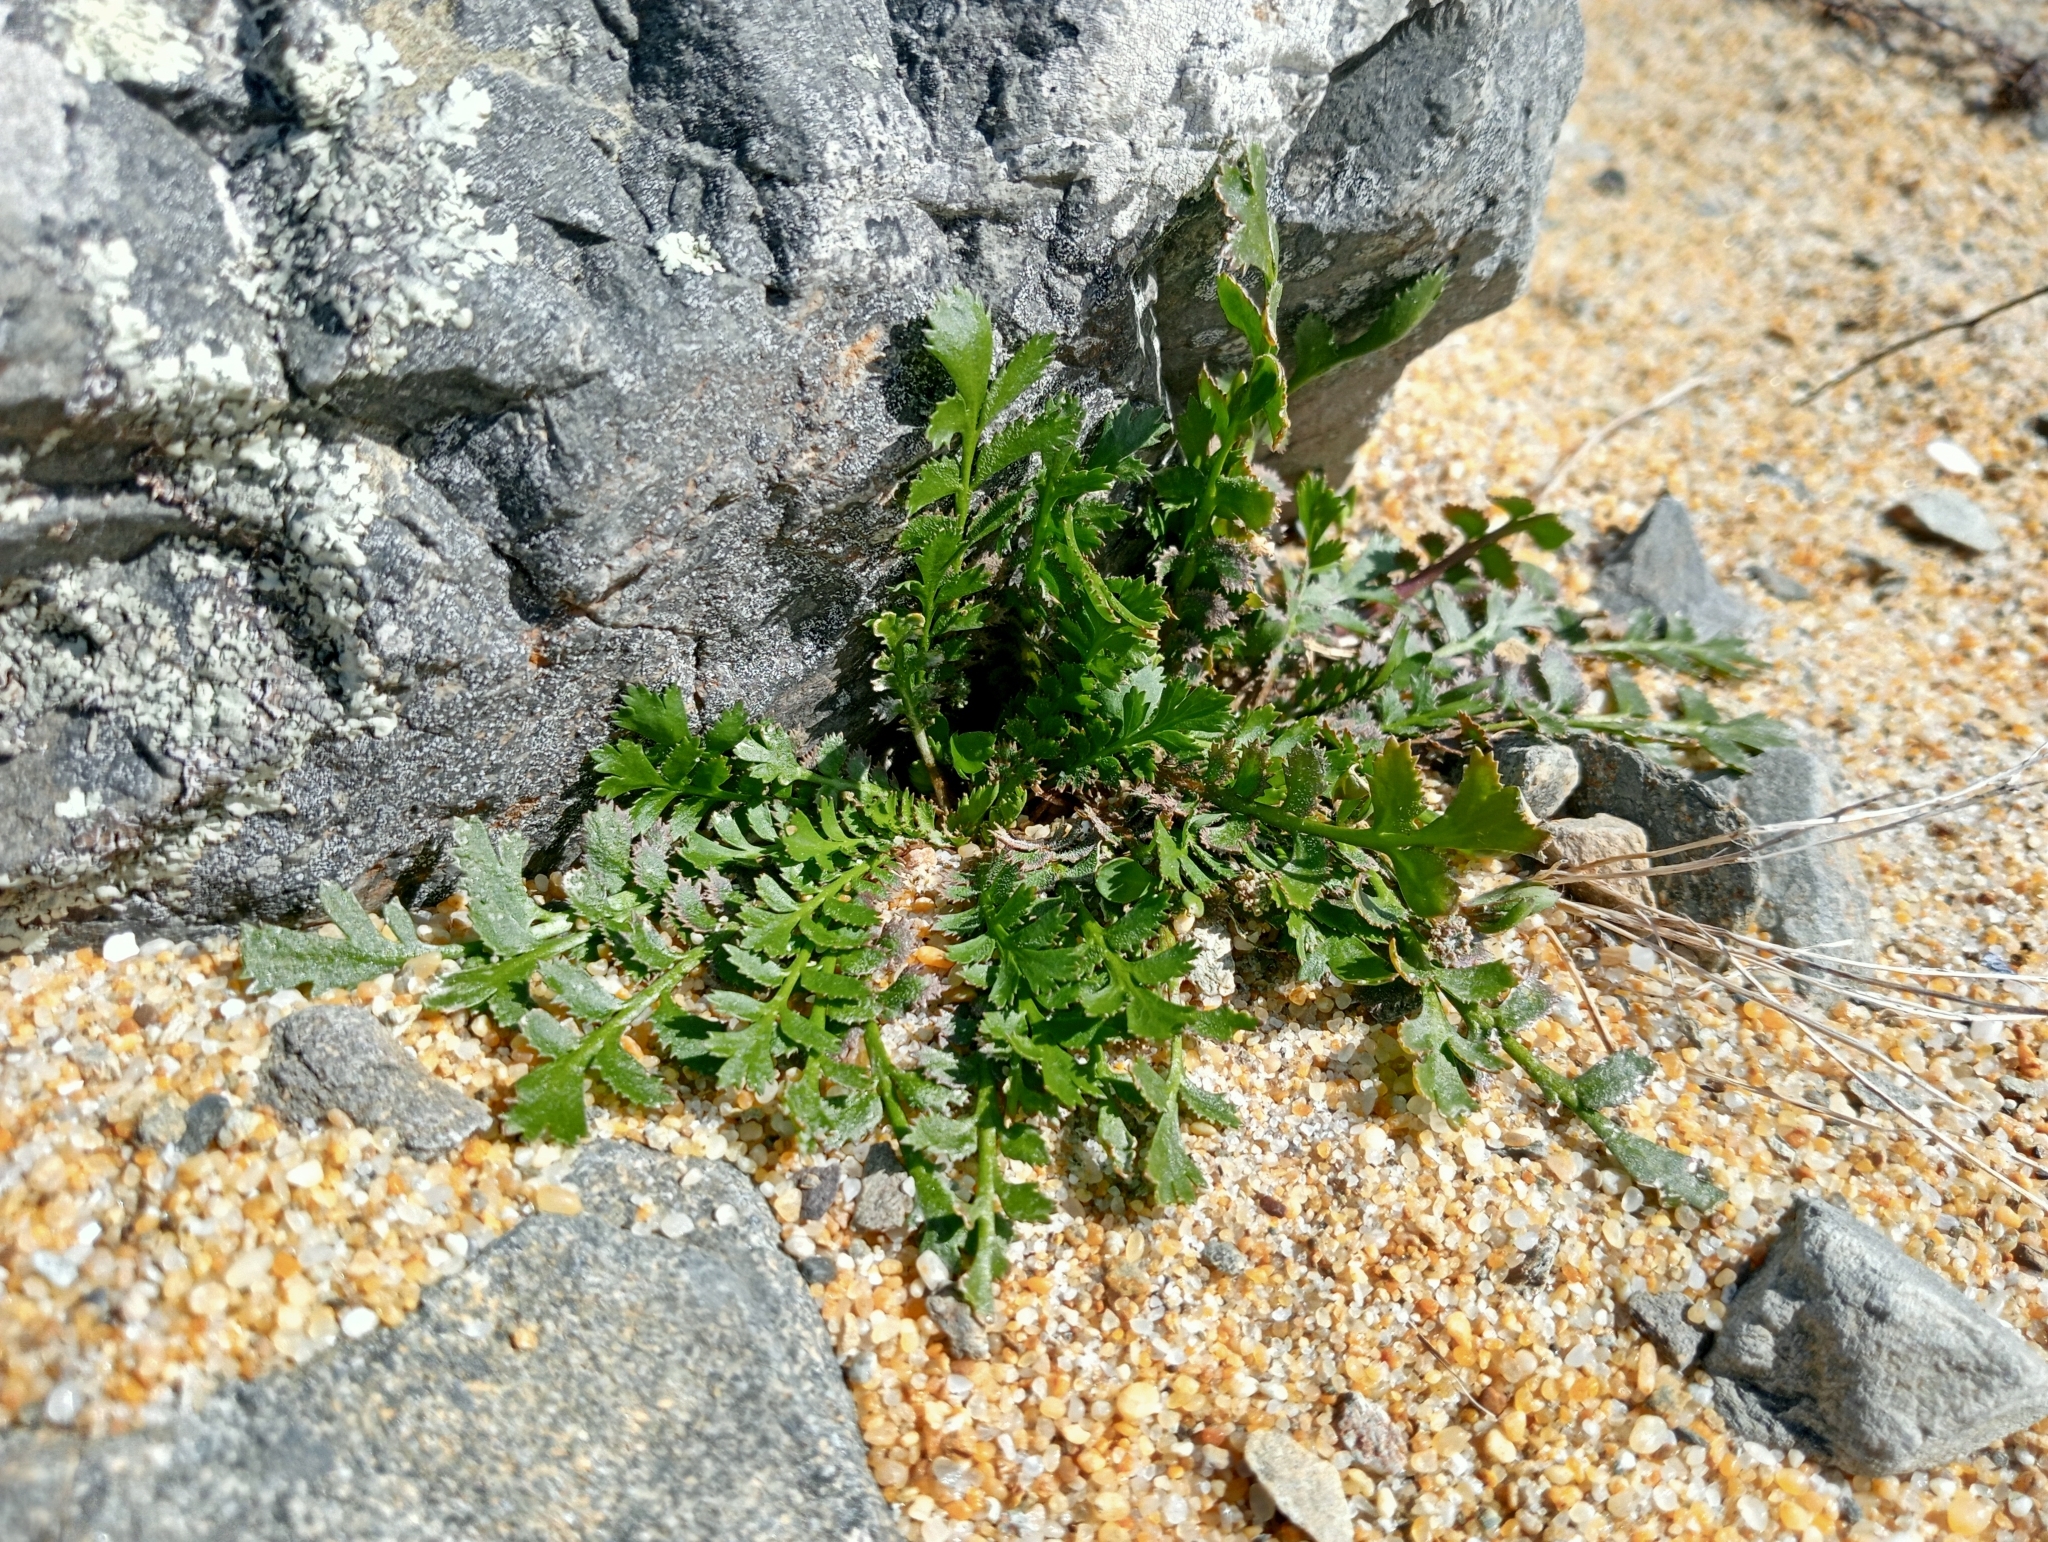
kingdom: Plantae
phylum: Tracheophyta
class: Magnoliopsida
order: Brassicales
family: Brassicaceae
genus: Lepidium
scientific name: Lepidium tenuicaule
